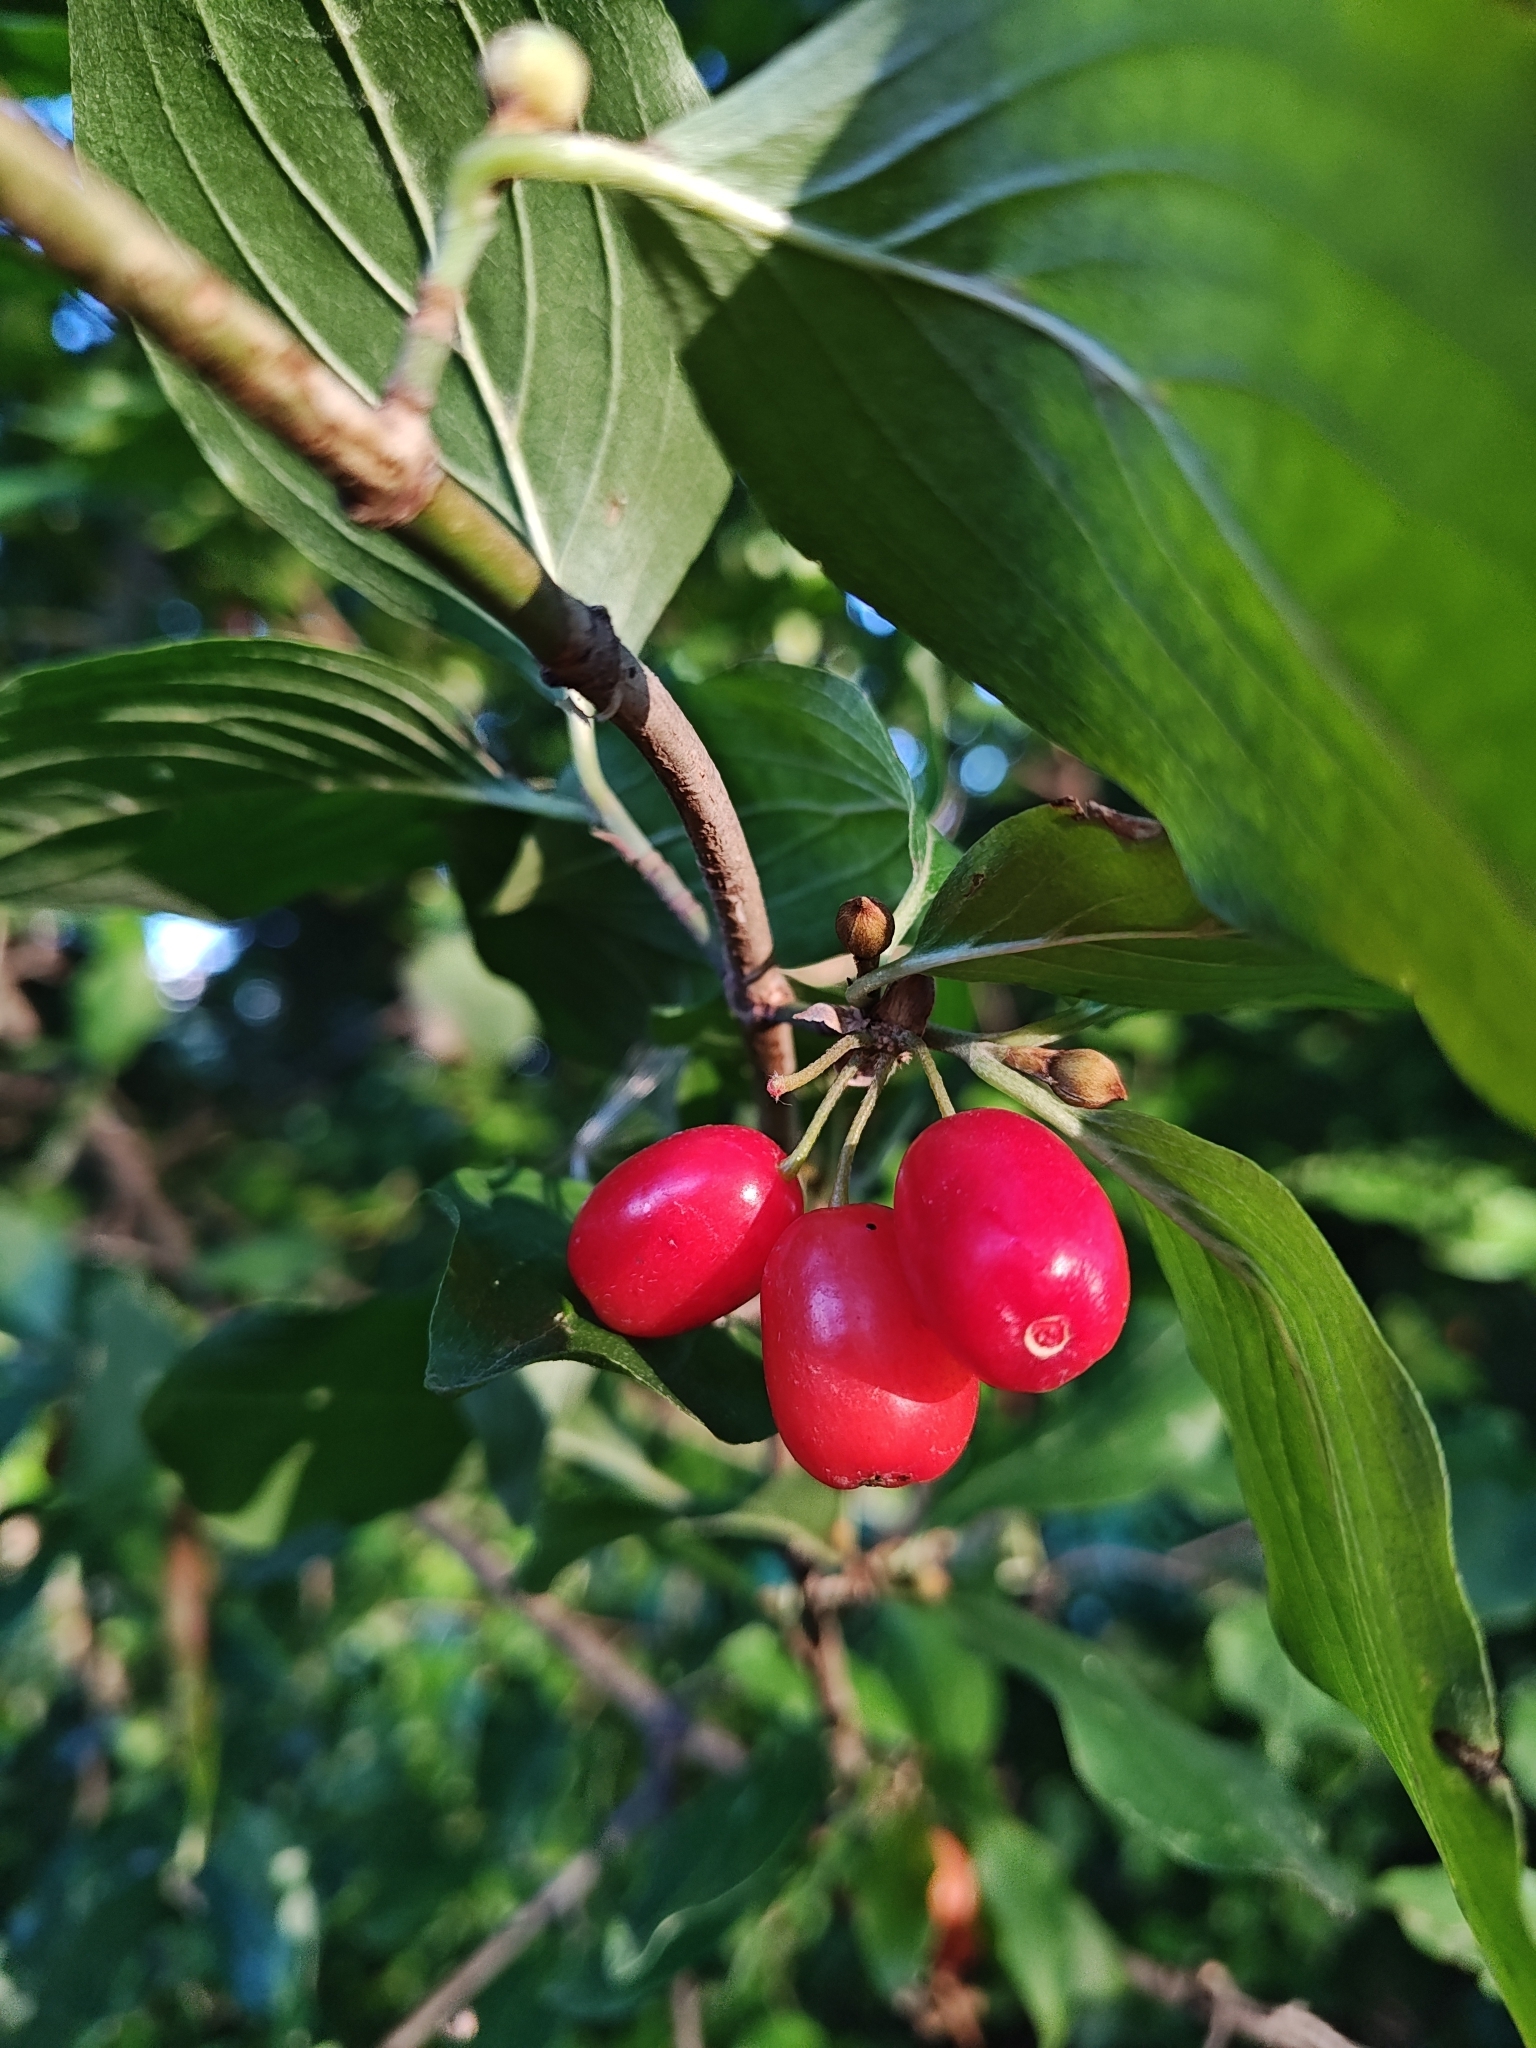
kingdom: Plantae
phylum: Tracheophyta
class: Magnoliopsida
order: Cornales
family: Cornaceae
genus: Cornus
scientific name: Cornus mas
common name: Cornelian-cherry
